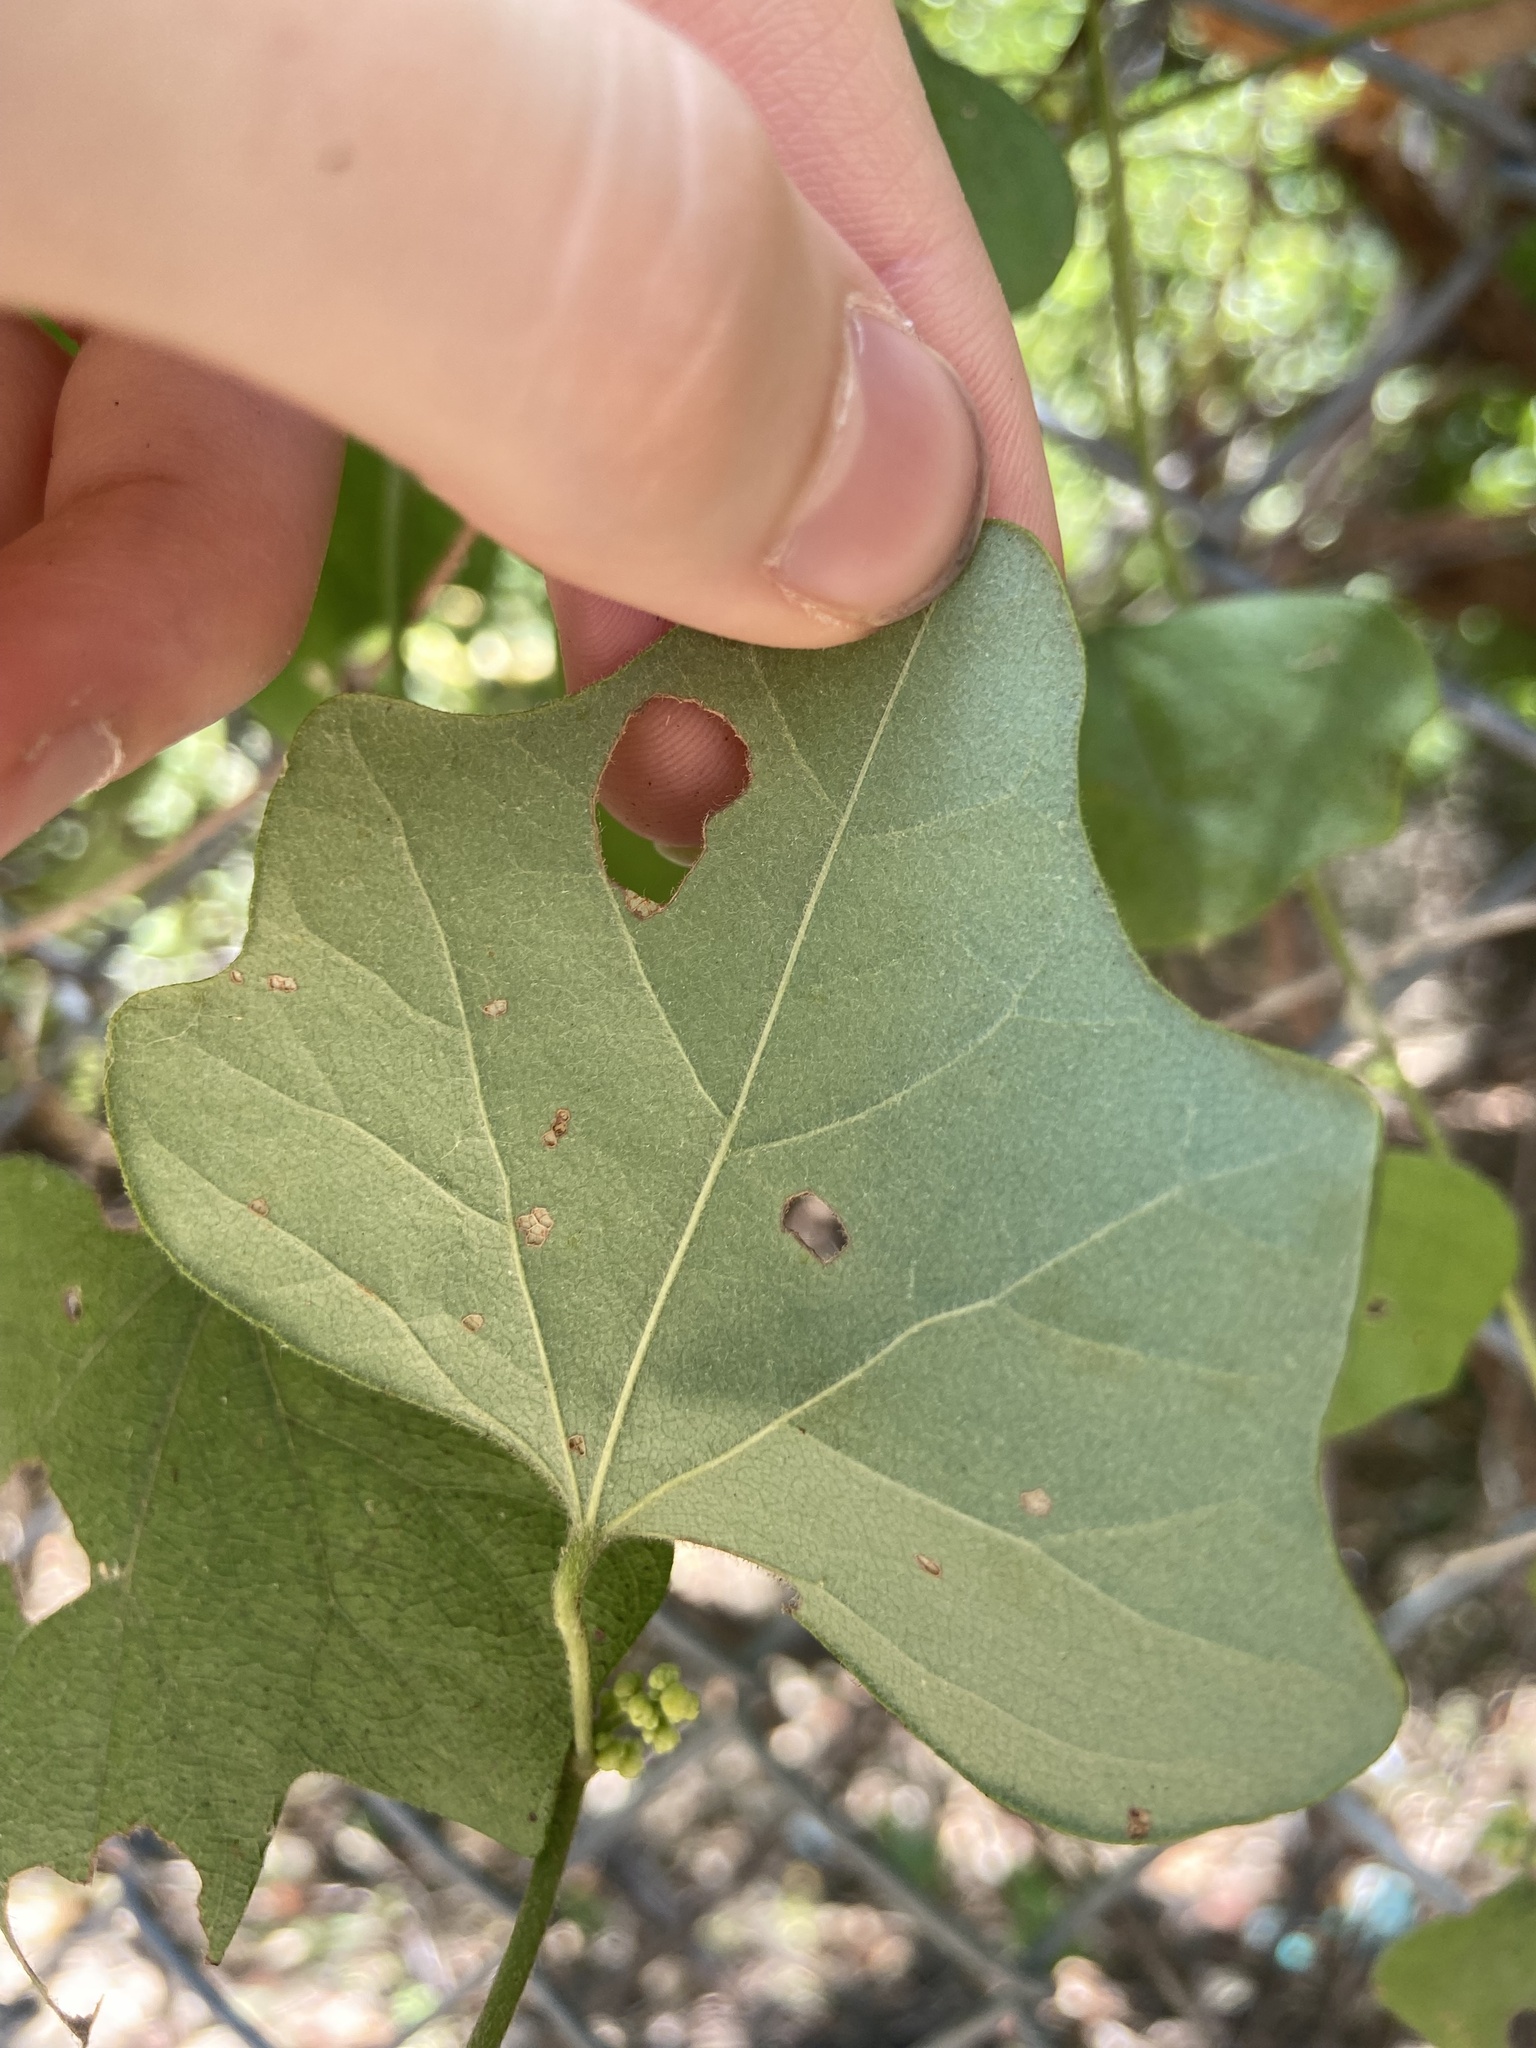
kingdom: Plantae
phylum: Tracheophyta
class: Magnoliopsida
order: Ranunculales
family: Menispermaceae
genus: Cocculus
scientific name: Cocculus carolinus
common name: Carolina moonseed
